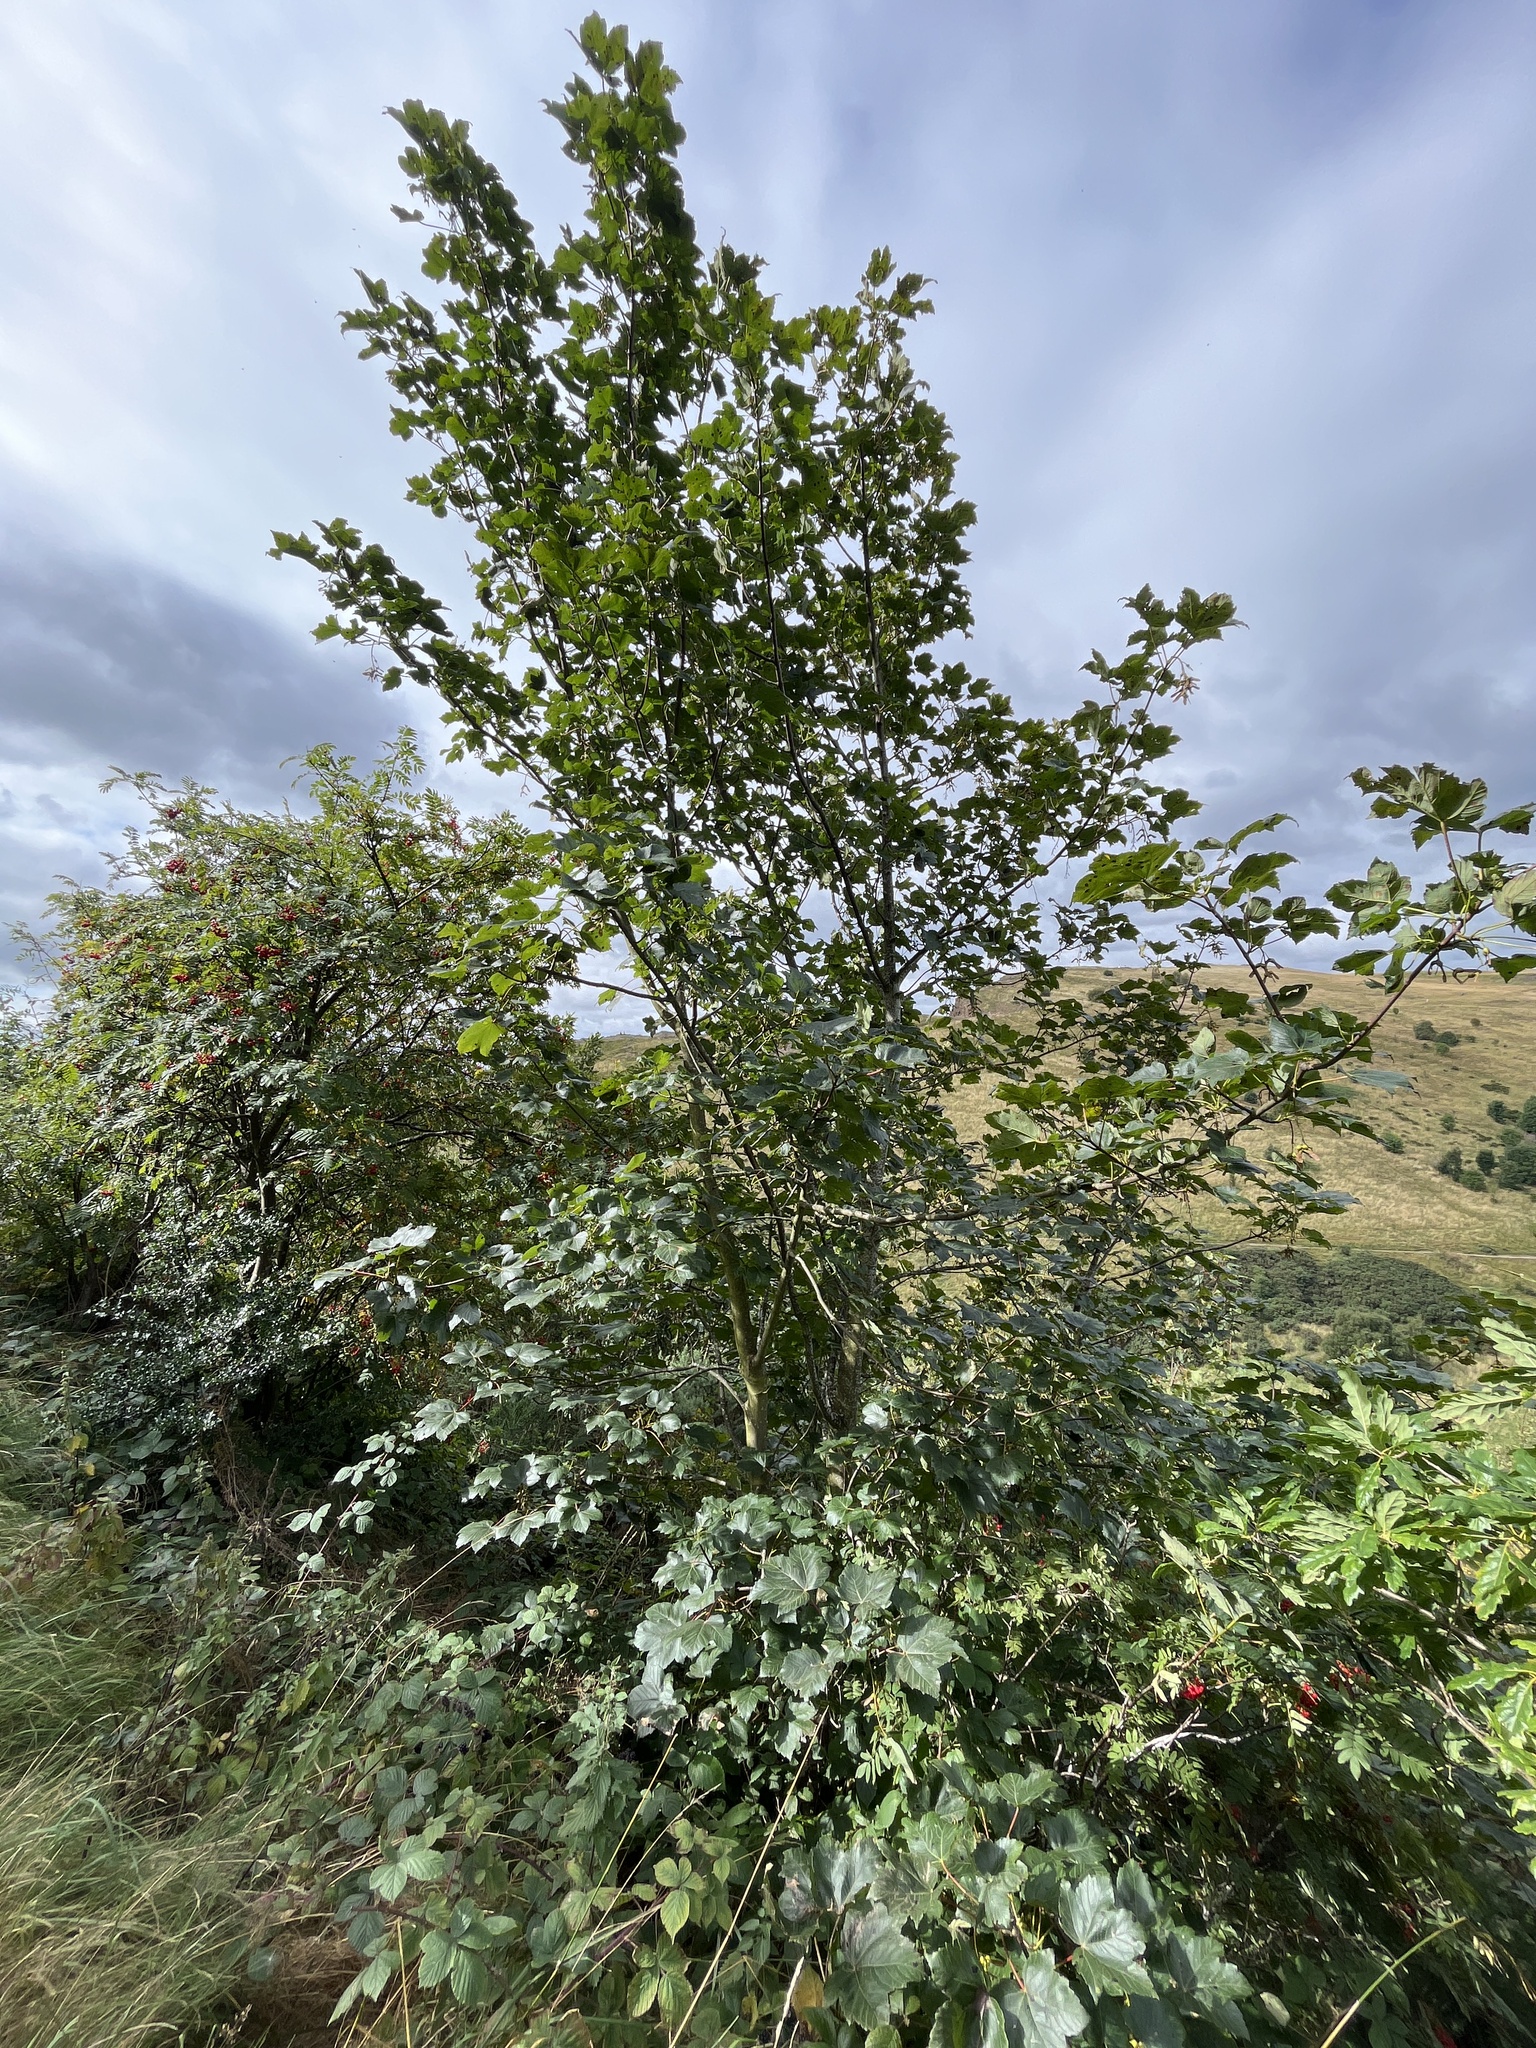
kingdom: Plantae
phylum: Tracheophyta
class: Magnoliopsida
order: Sapindales
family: Sapindaceae
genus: Acer
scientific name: Acer pseudoplatanus
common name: Sycamore
